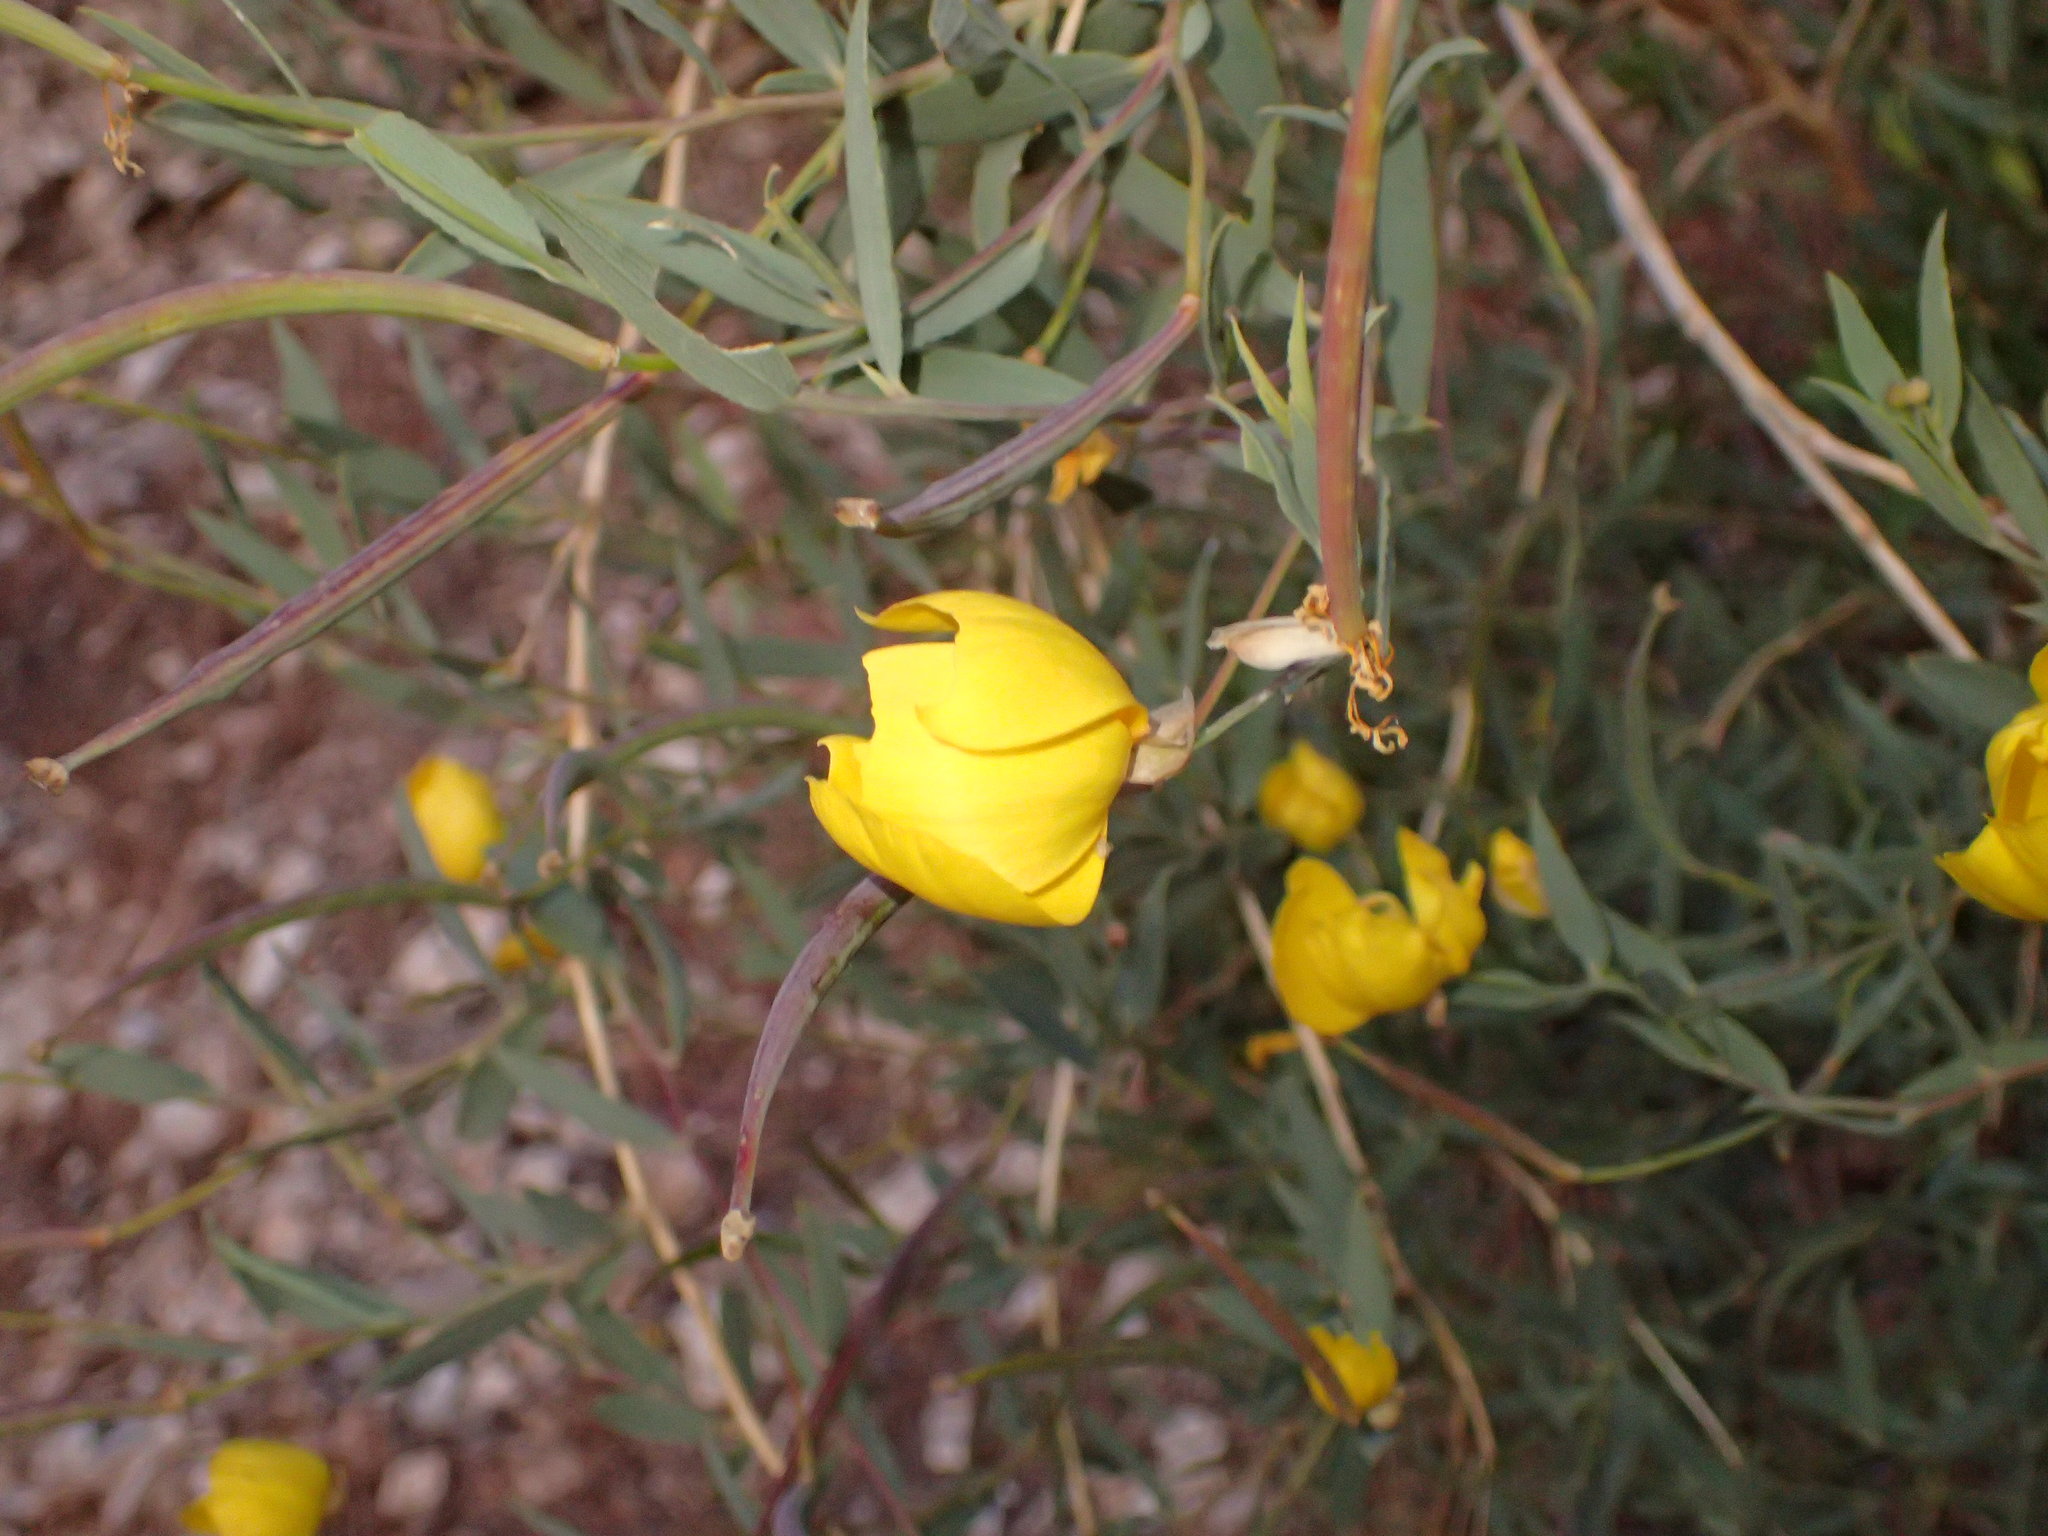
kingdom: Plantae
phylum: Tracheophyta
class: Magnoliopsida
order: Ranunculales
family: Papaveraceae
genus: Dendromecon
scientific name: Dendromecon rigida
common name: Tree poppy
